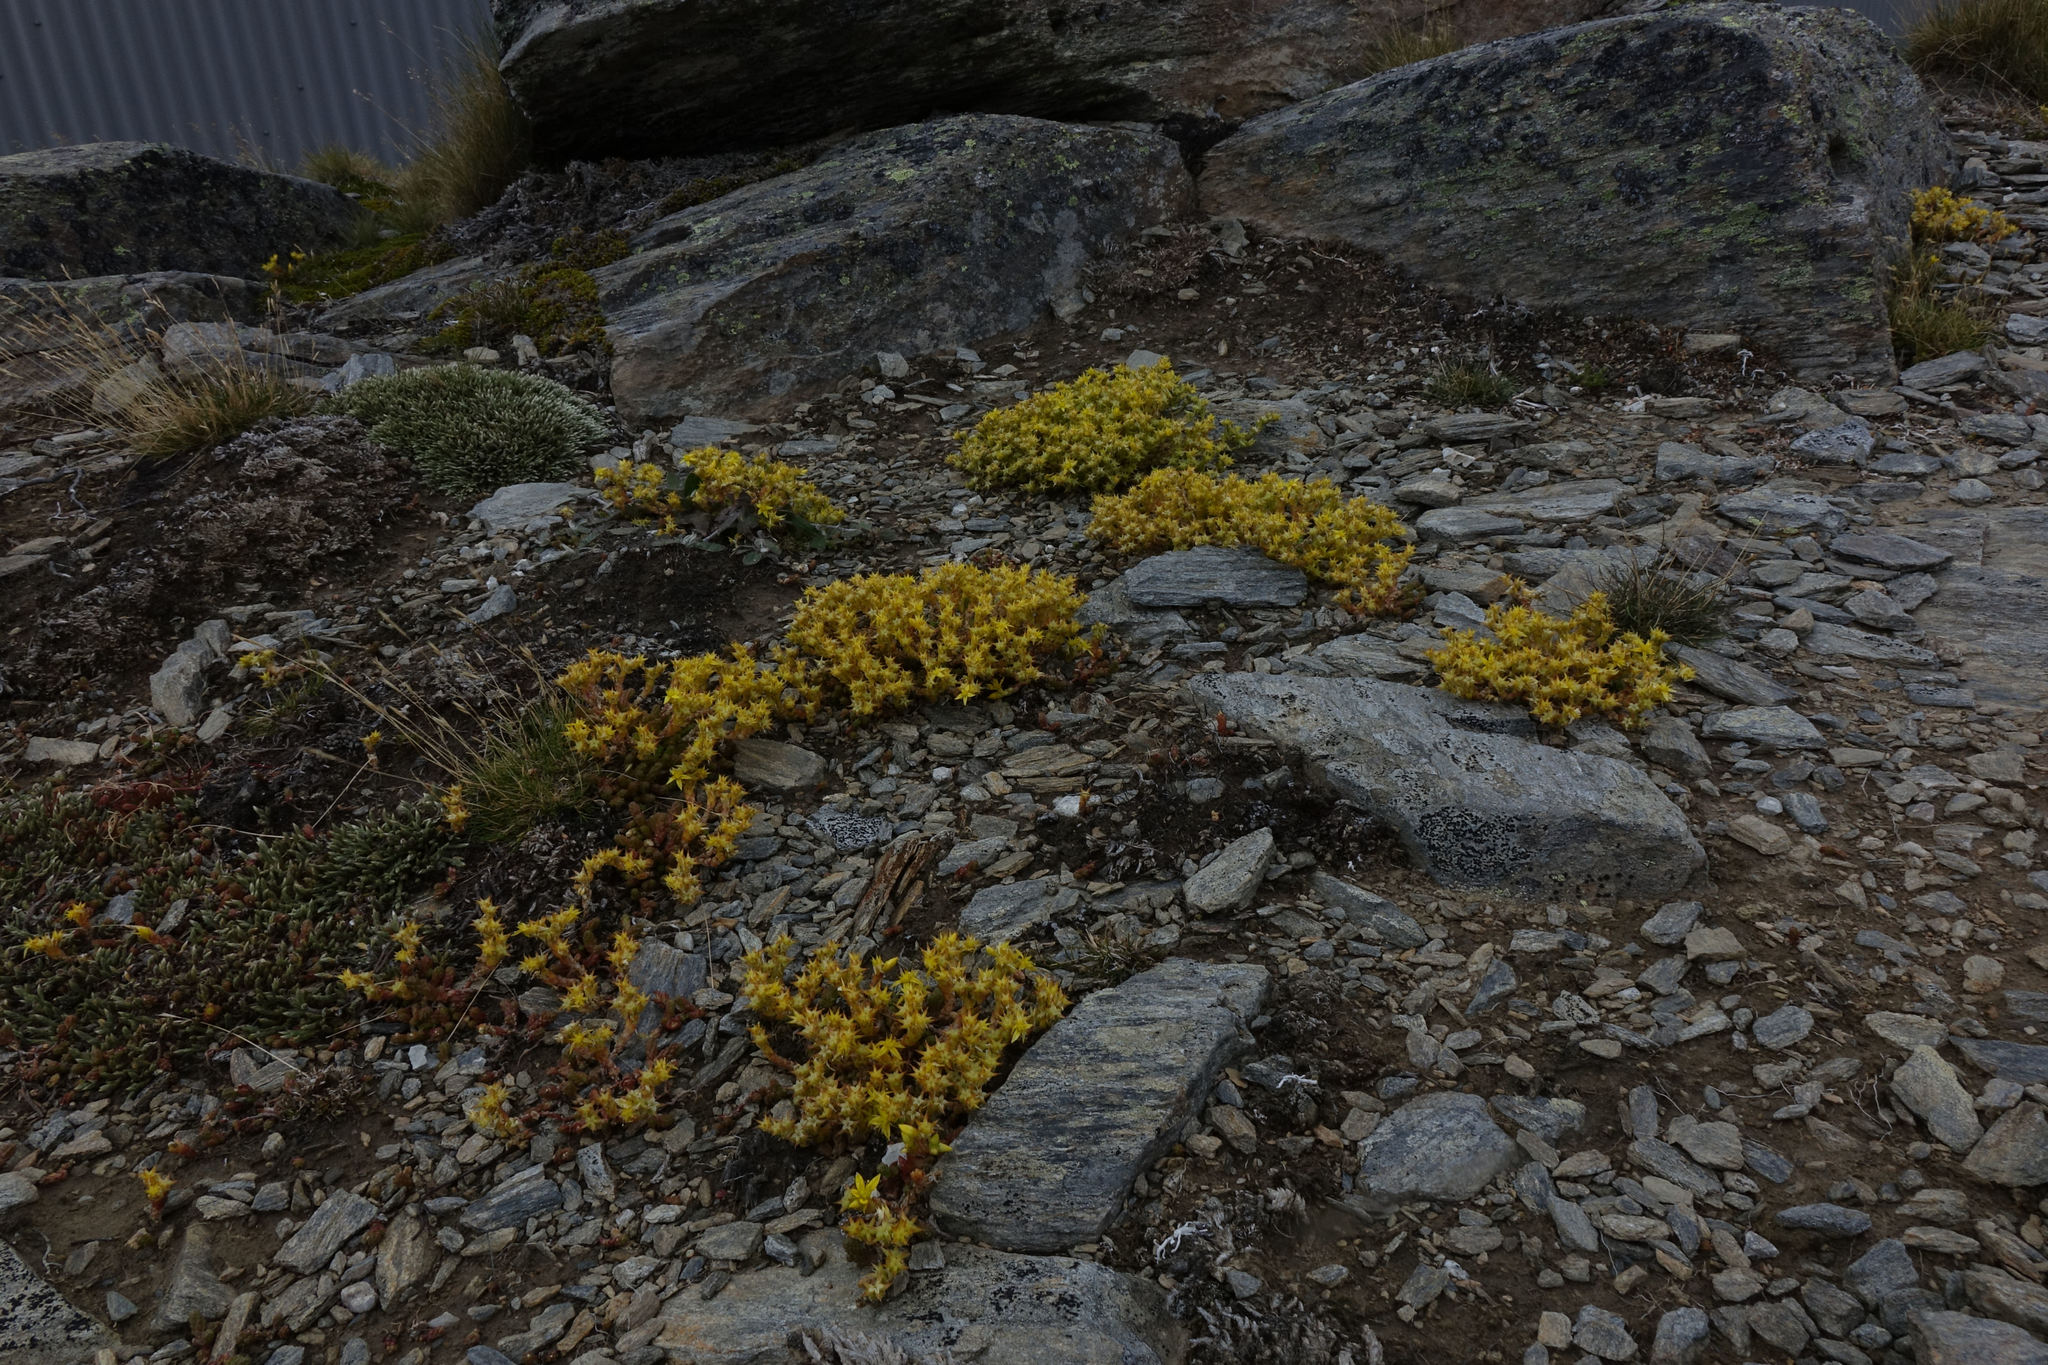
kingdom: Plantae
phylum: Tracheophyta
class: Magnoliopsida
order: Saxifragales
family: Crassulaceae
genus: Sedum
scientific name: Sedum acre
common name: Biting stonecrop
